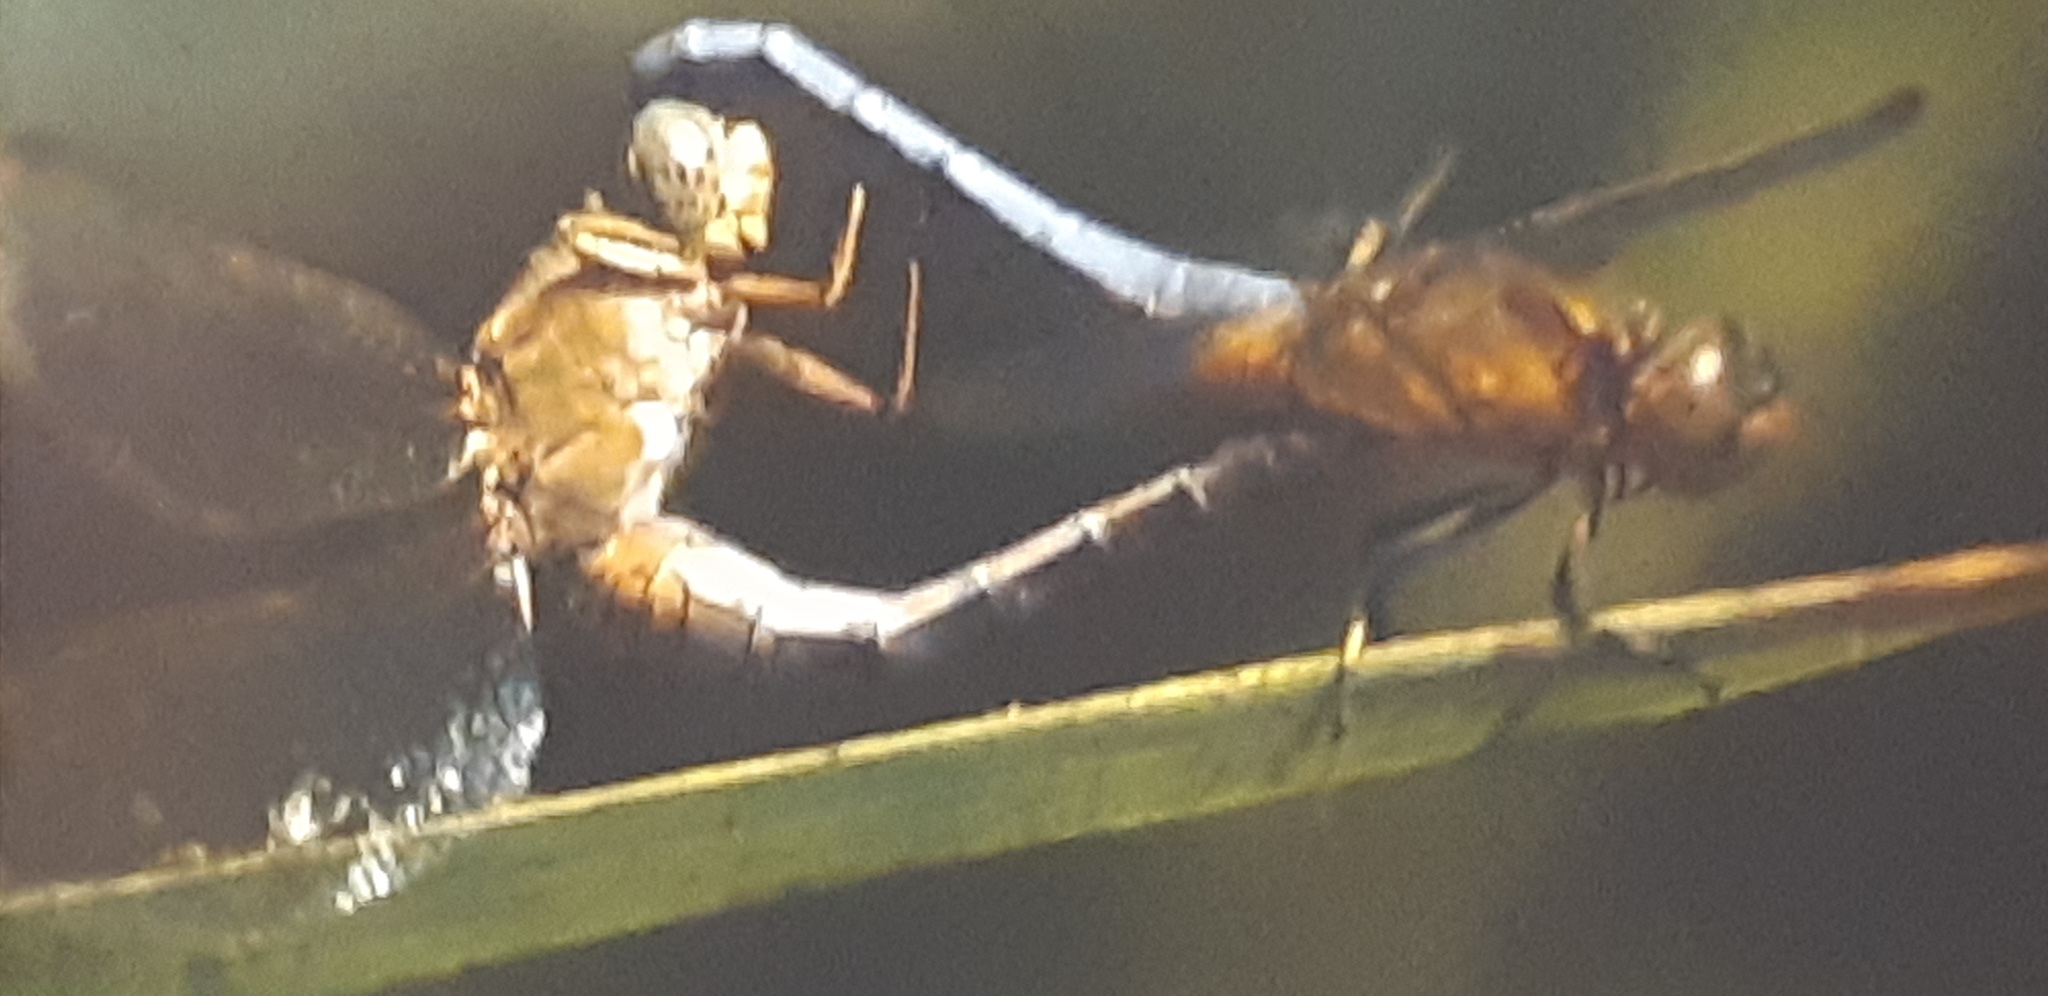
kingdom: Animalia
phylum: Arthropoda
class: Insecta
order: Odonata
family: Libellulidae
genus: Orthetrum
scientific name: Orthetrum coerulescens
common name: Keeled skimmer
